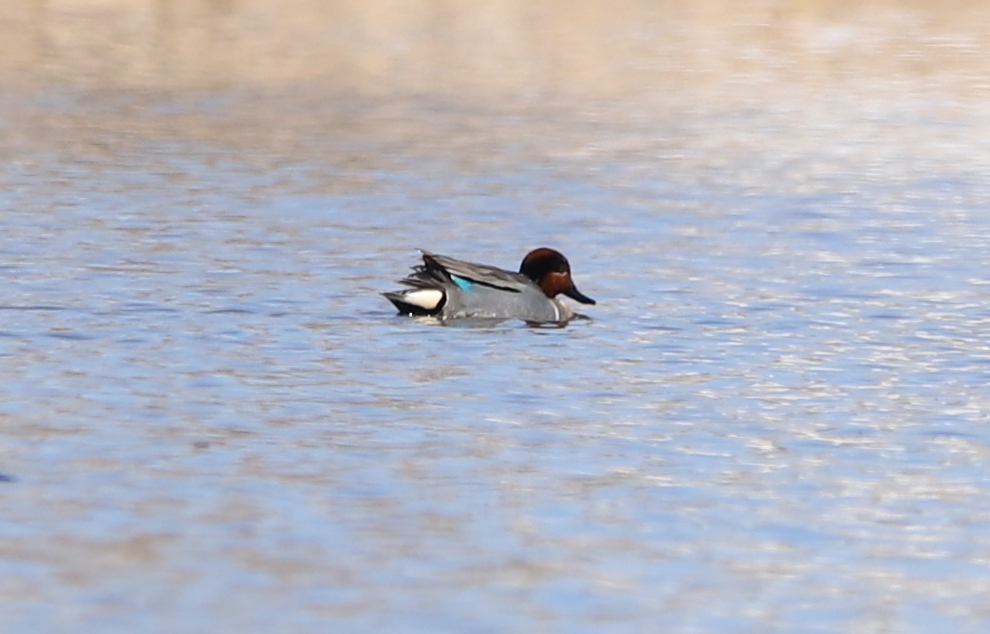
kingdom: Animalia
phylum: Chordata
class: Aves
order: Anseriformes
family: Anatidae
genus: Anas
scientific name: Anas crecca
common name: Eurasian teal
